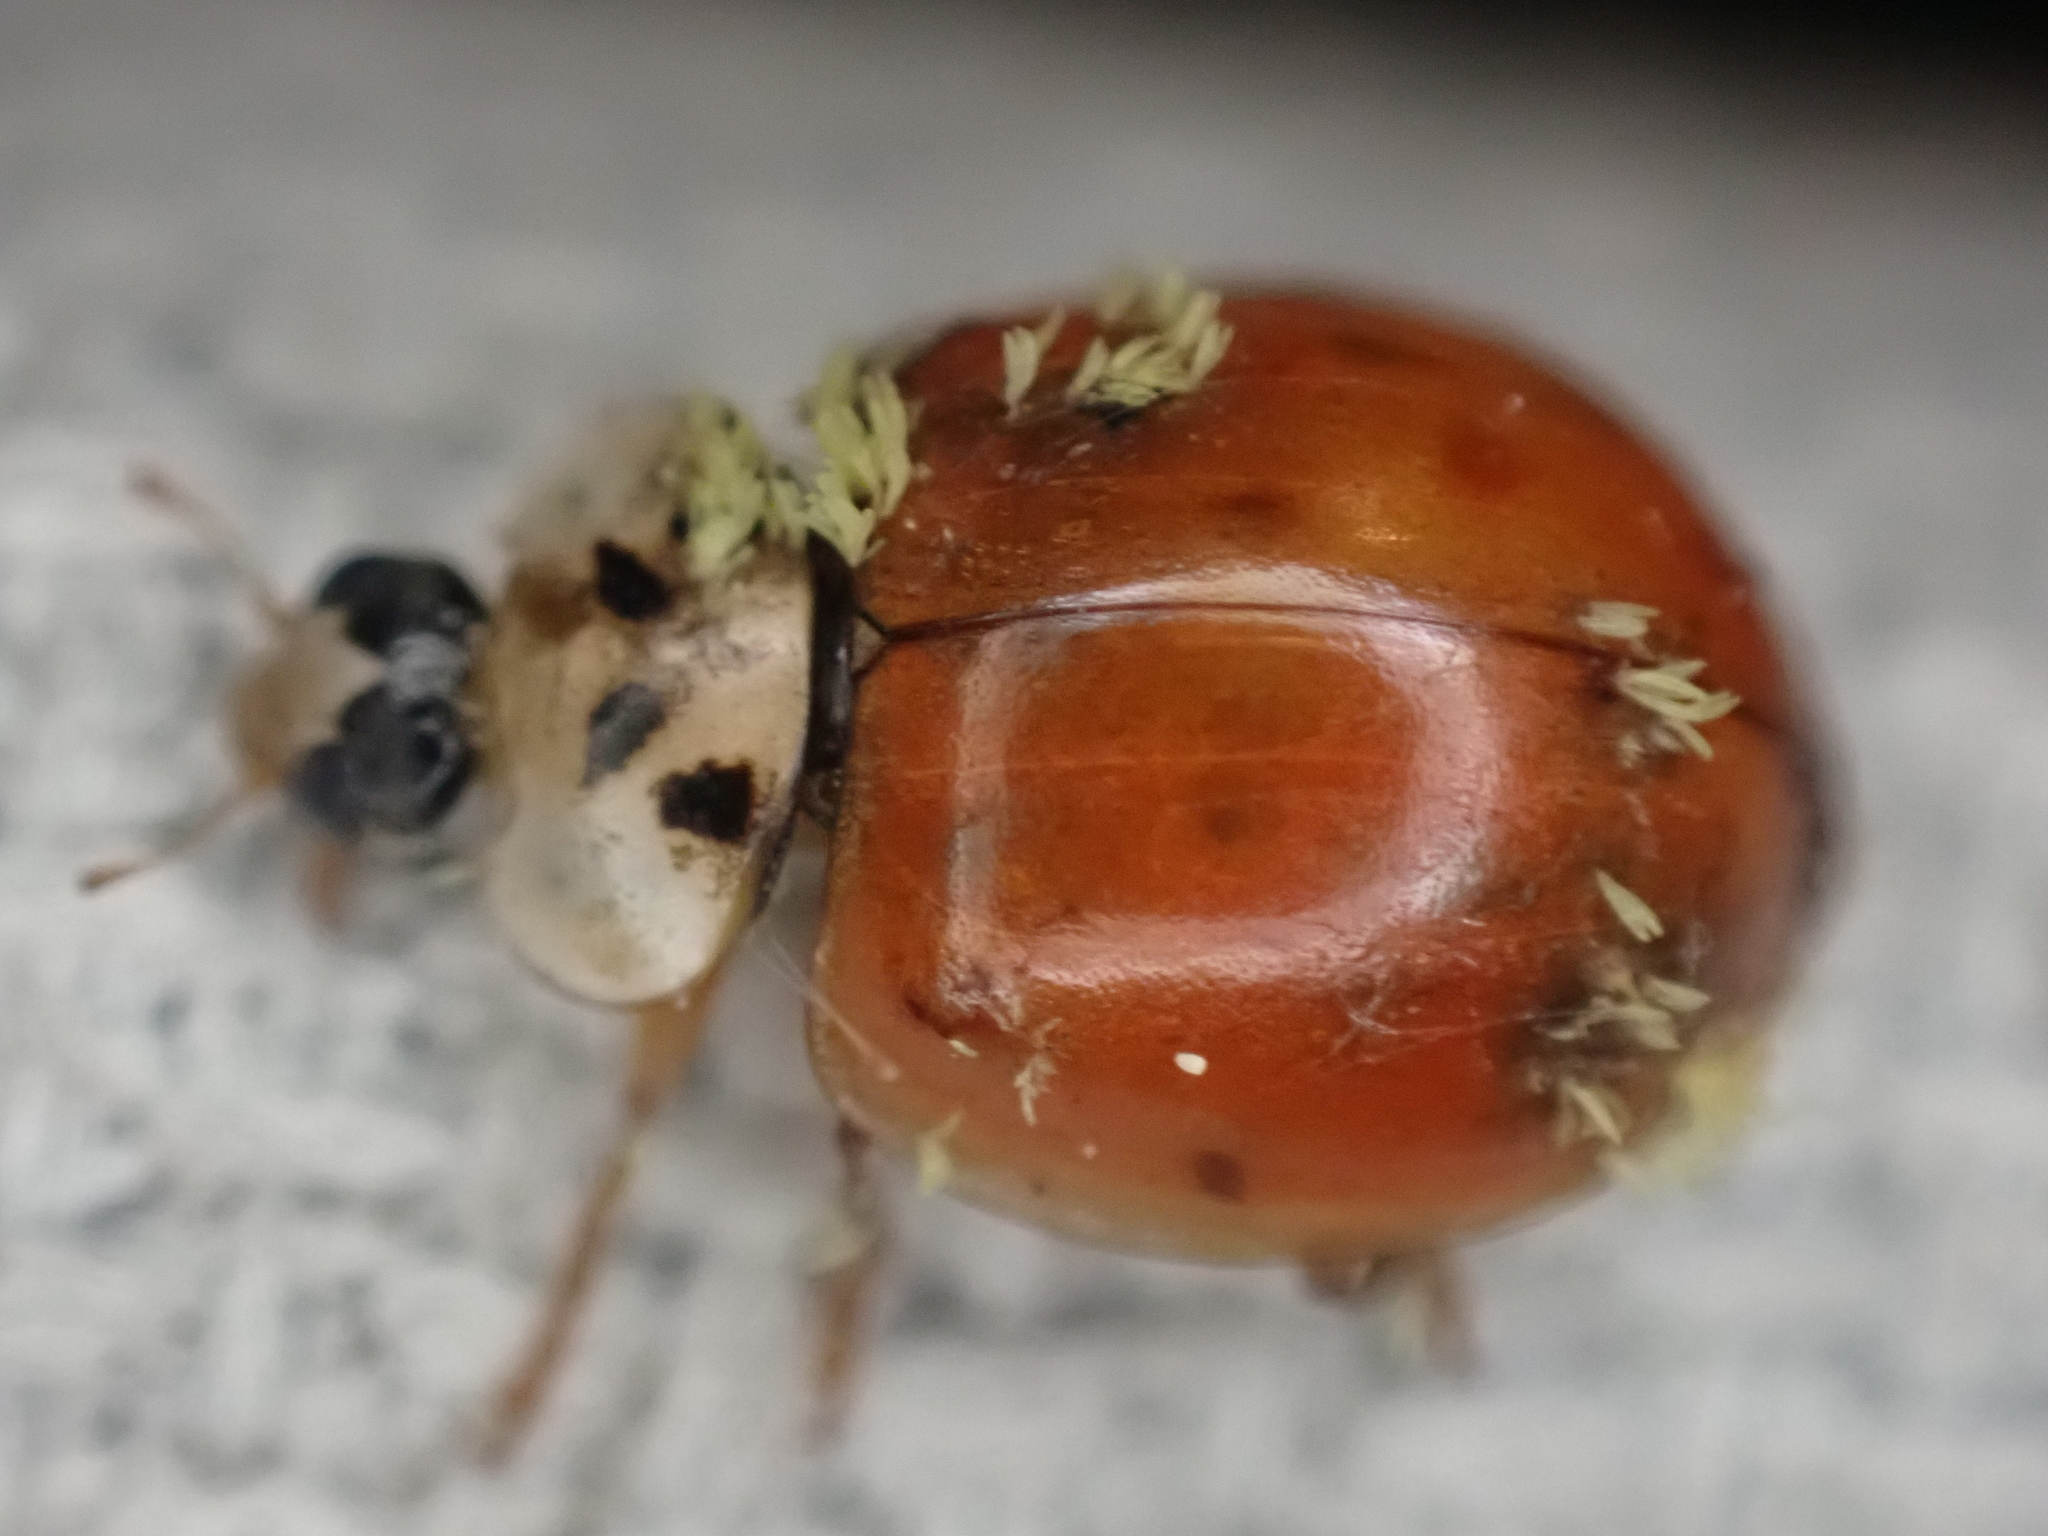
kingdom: Animalia
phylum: Arthropoda
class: Insecta
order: Coleoptera
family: Coccinellidae
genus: Harmonia
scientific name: Harmonia axyridis
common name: Harlequin ladybird
